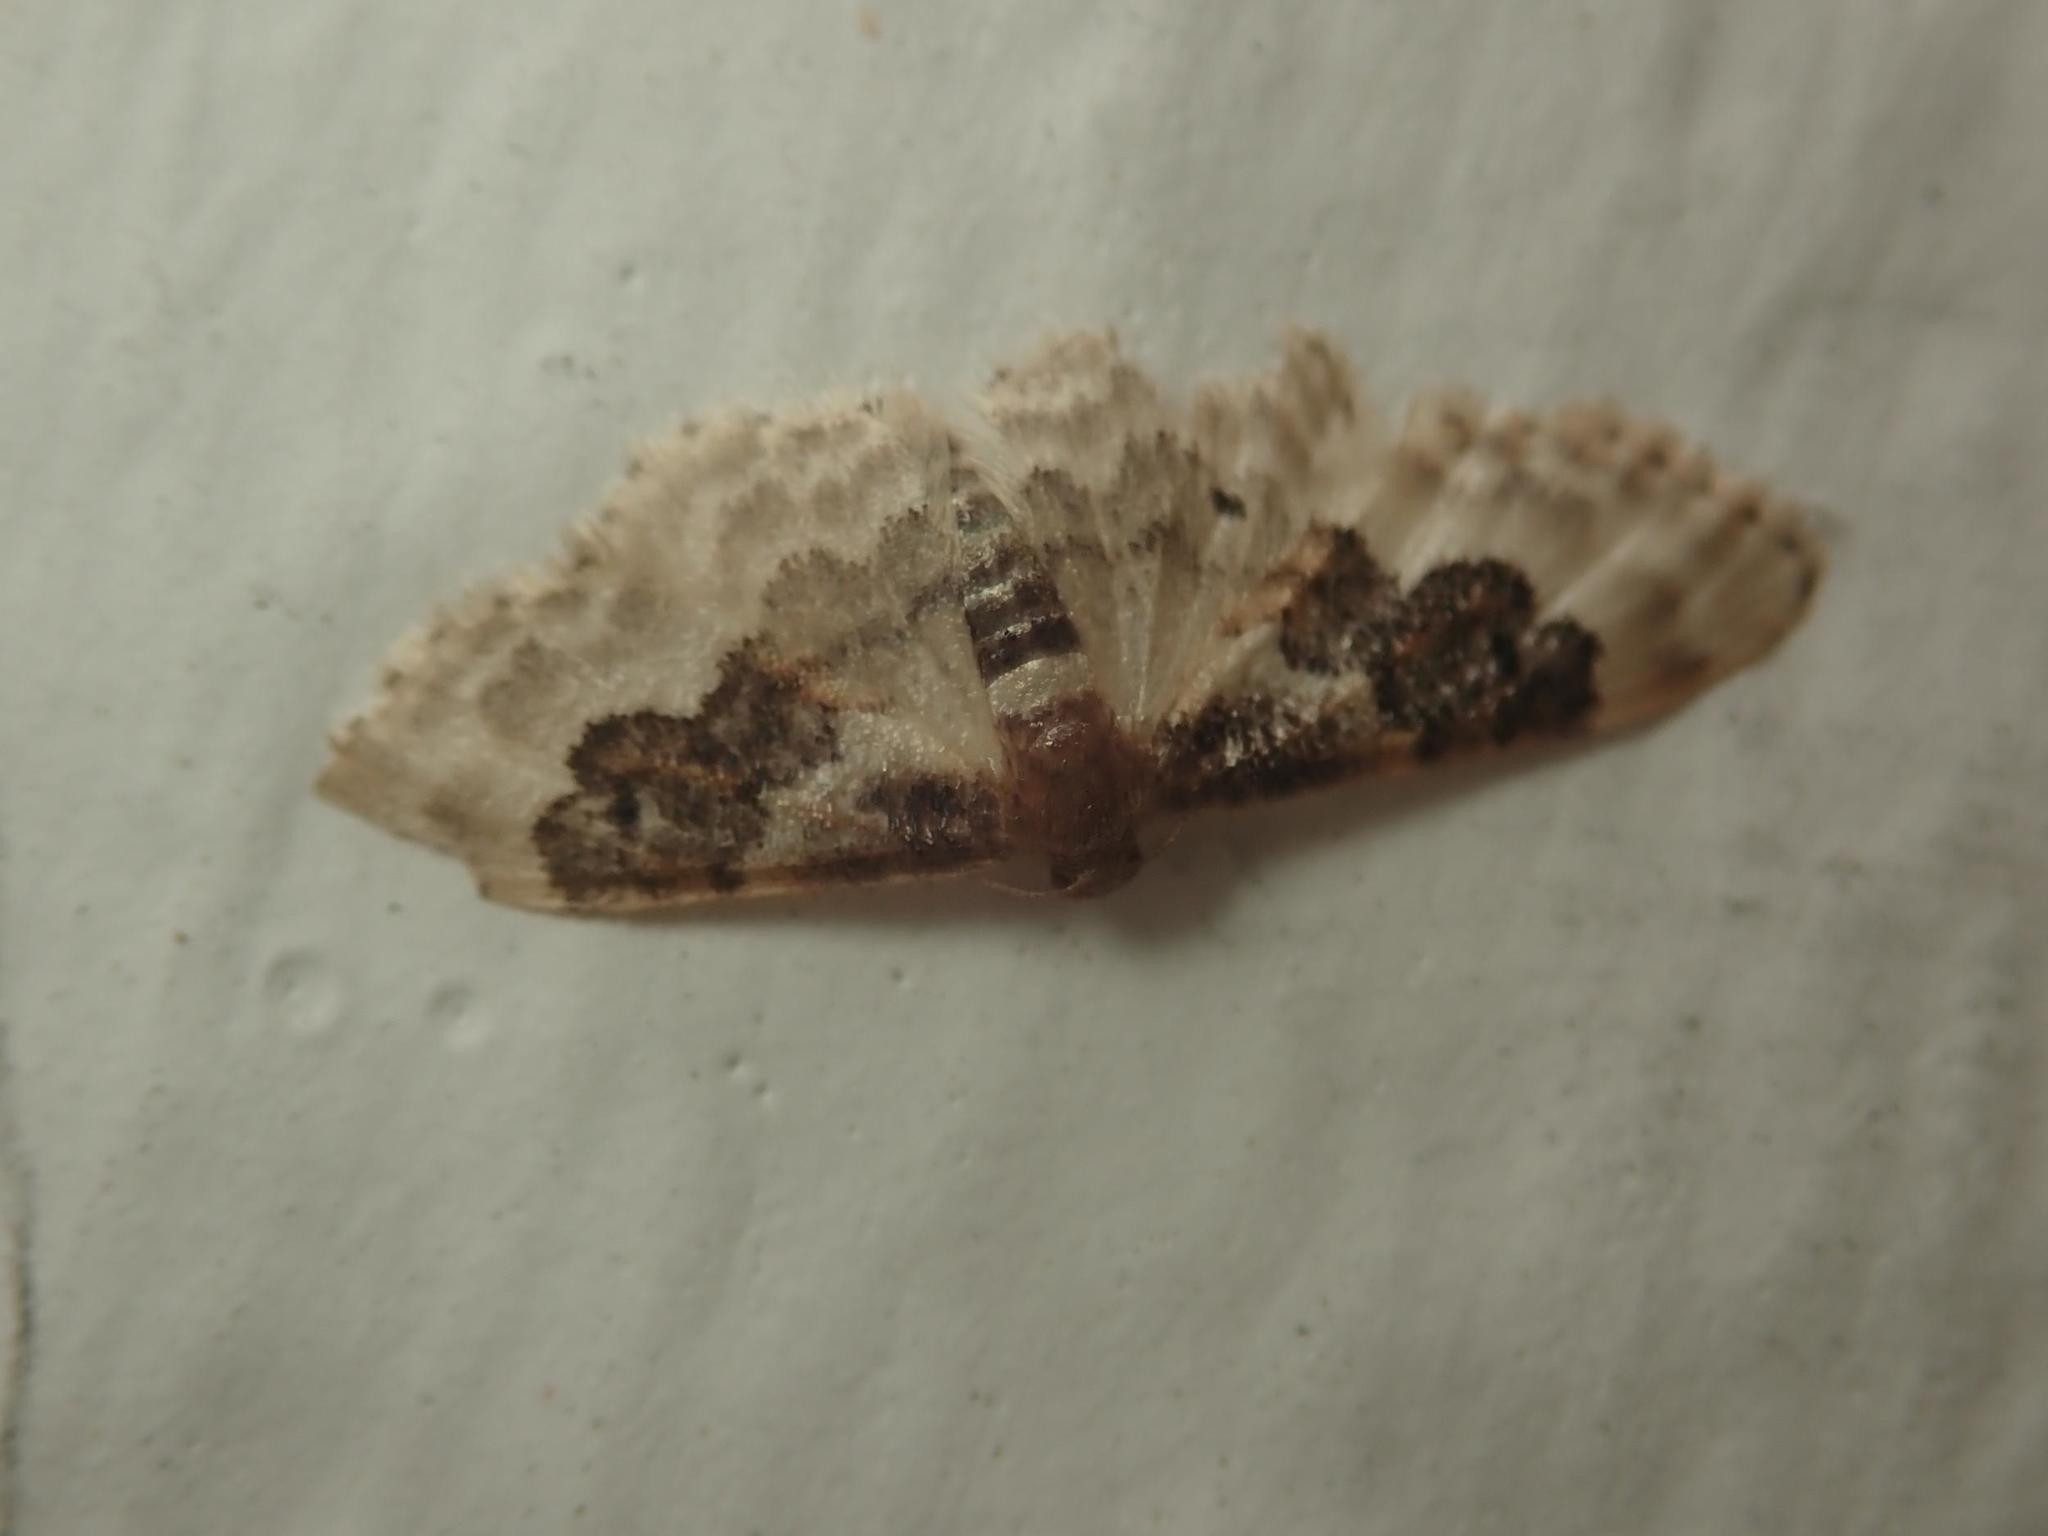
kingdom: Animalia
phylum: Arthropoda
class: Insecta
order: Lepidoptera
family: Geometridae
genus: Idaea
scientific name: Idaea rusticata
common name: Least carpet
